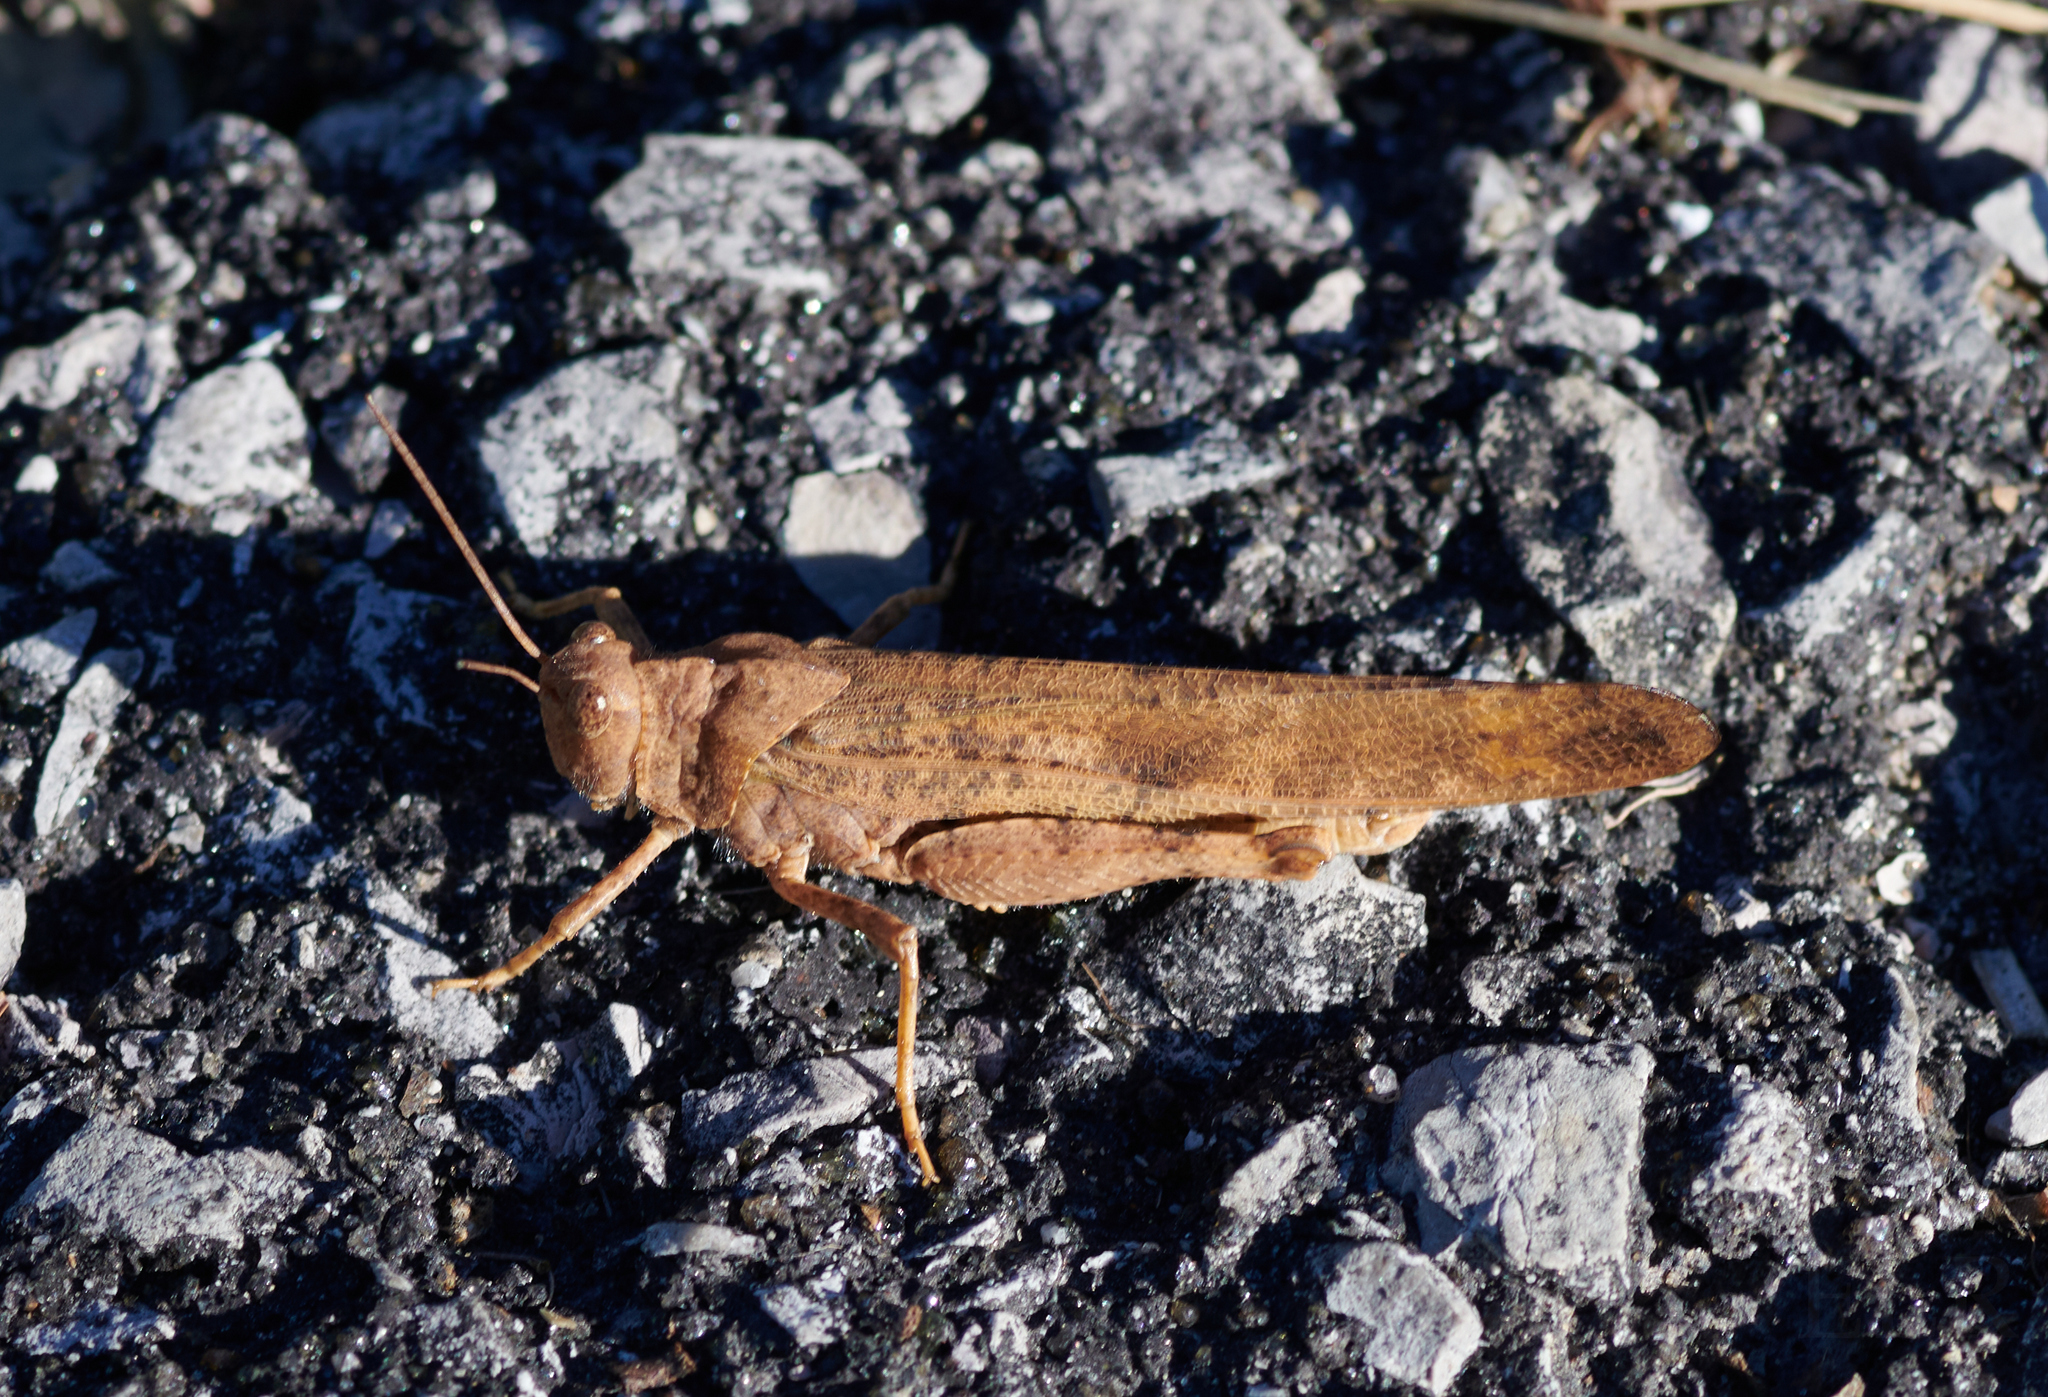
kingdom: Animalia
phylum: Arthropoda
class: Insecta
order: Orthoptera
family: Acrididae
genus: Dissosteira
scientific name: Dissosteira carolina
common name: Carolina grasshopper
